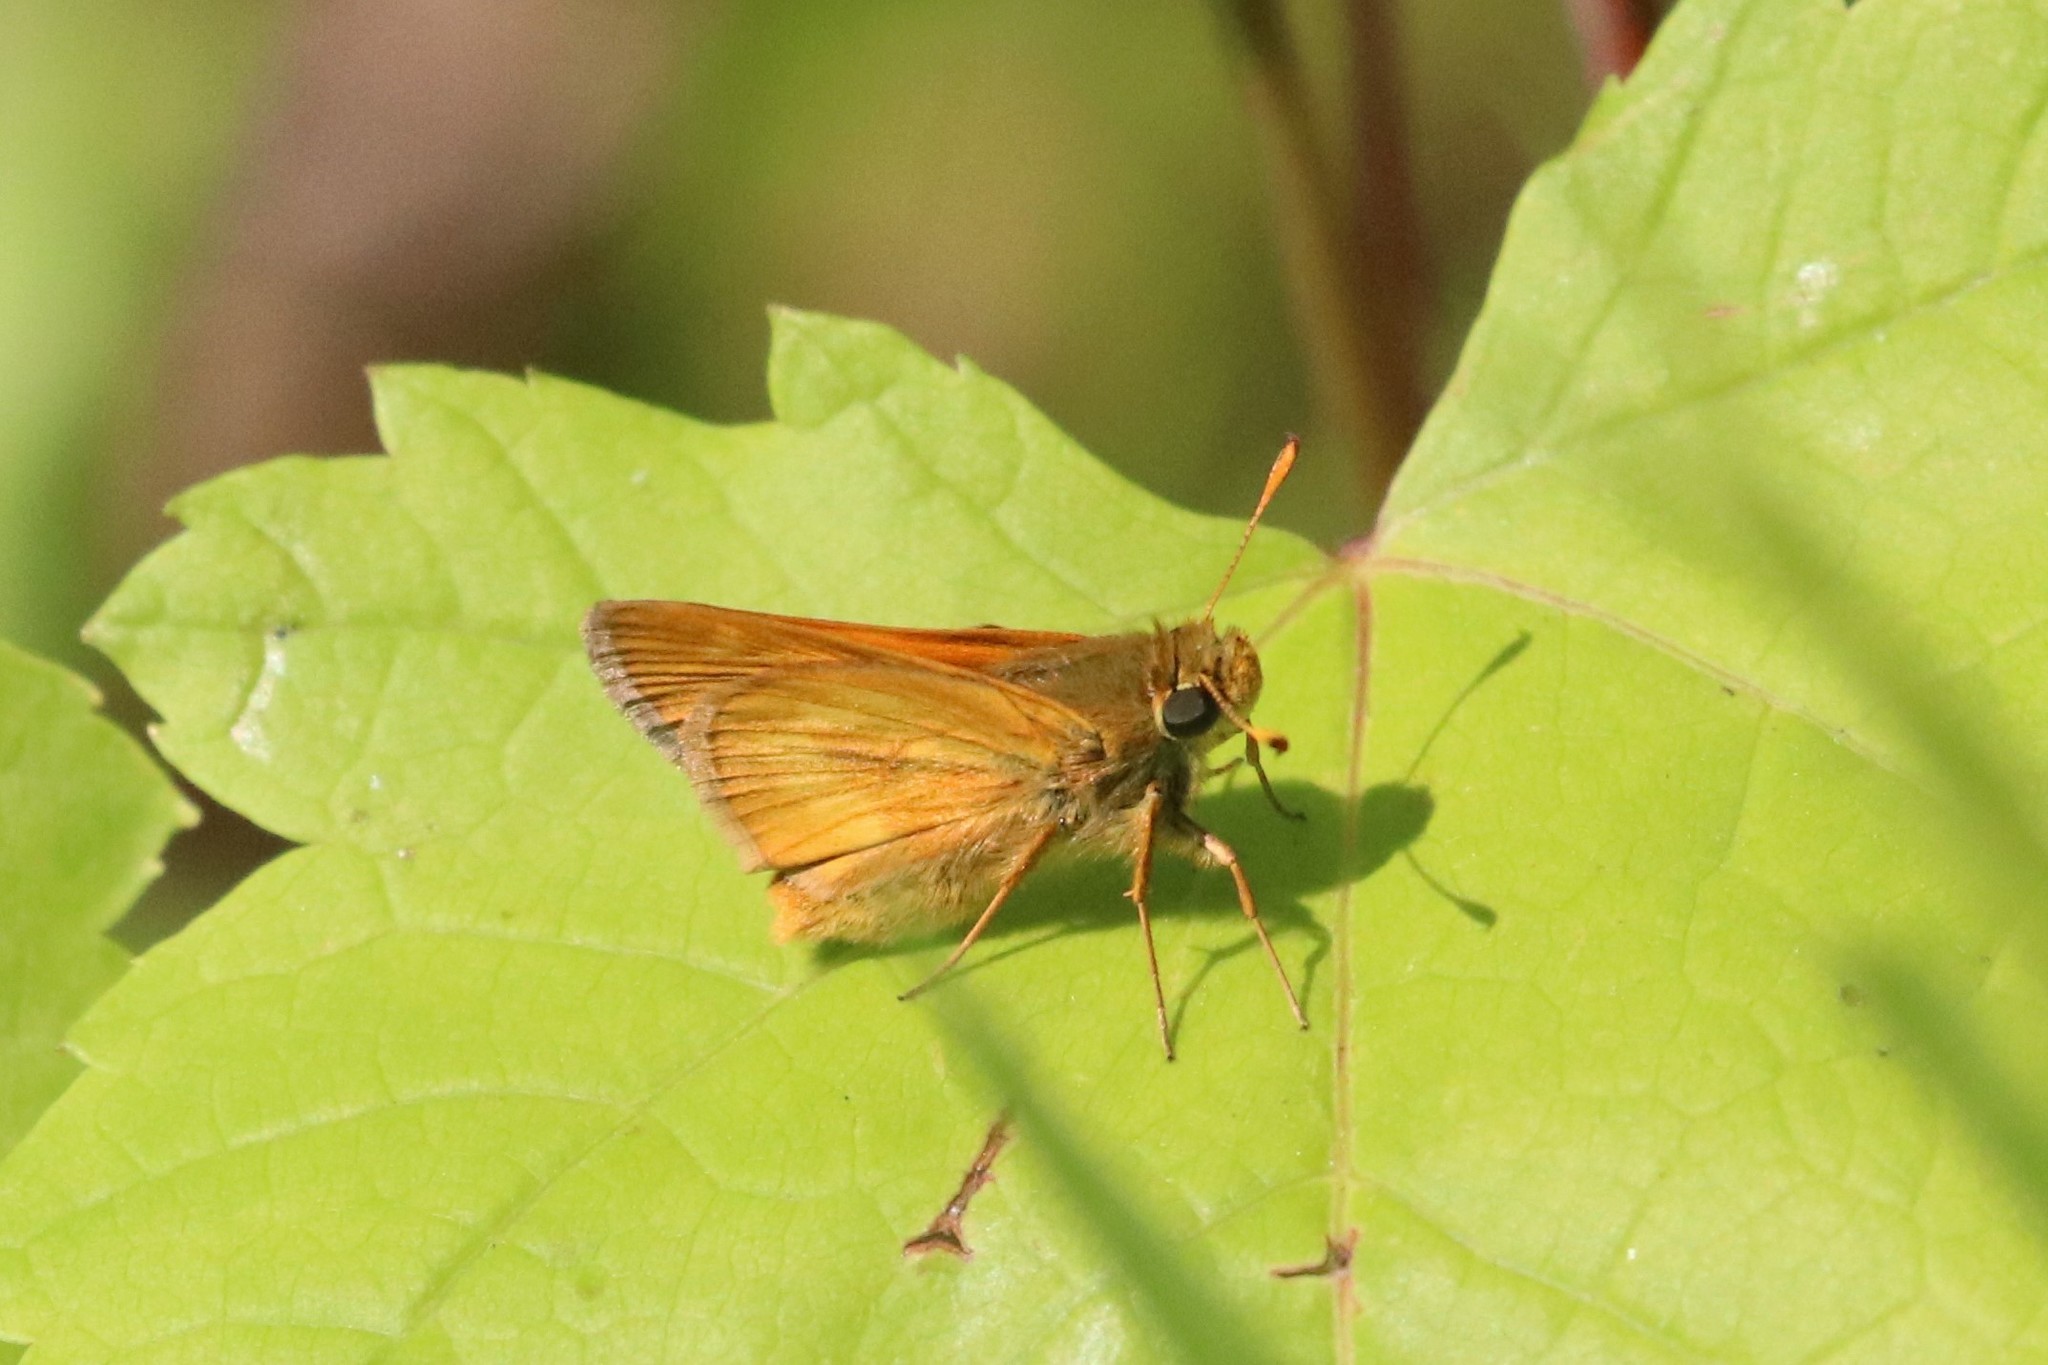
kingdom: Animalia
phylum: Arthropoda
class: Insecta
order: Lepidoptera
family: Hesperiidae
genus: Polites
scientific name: Polites mystic
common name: Long dash
